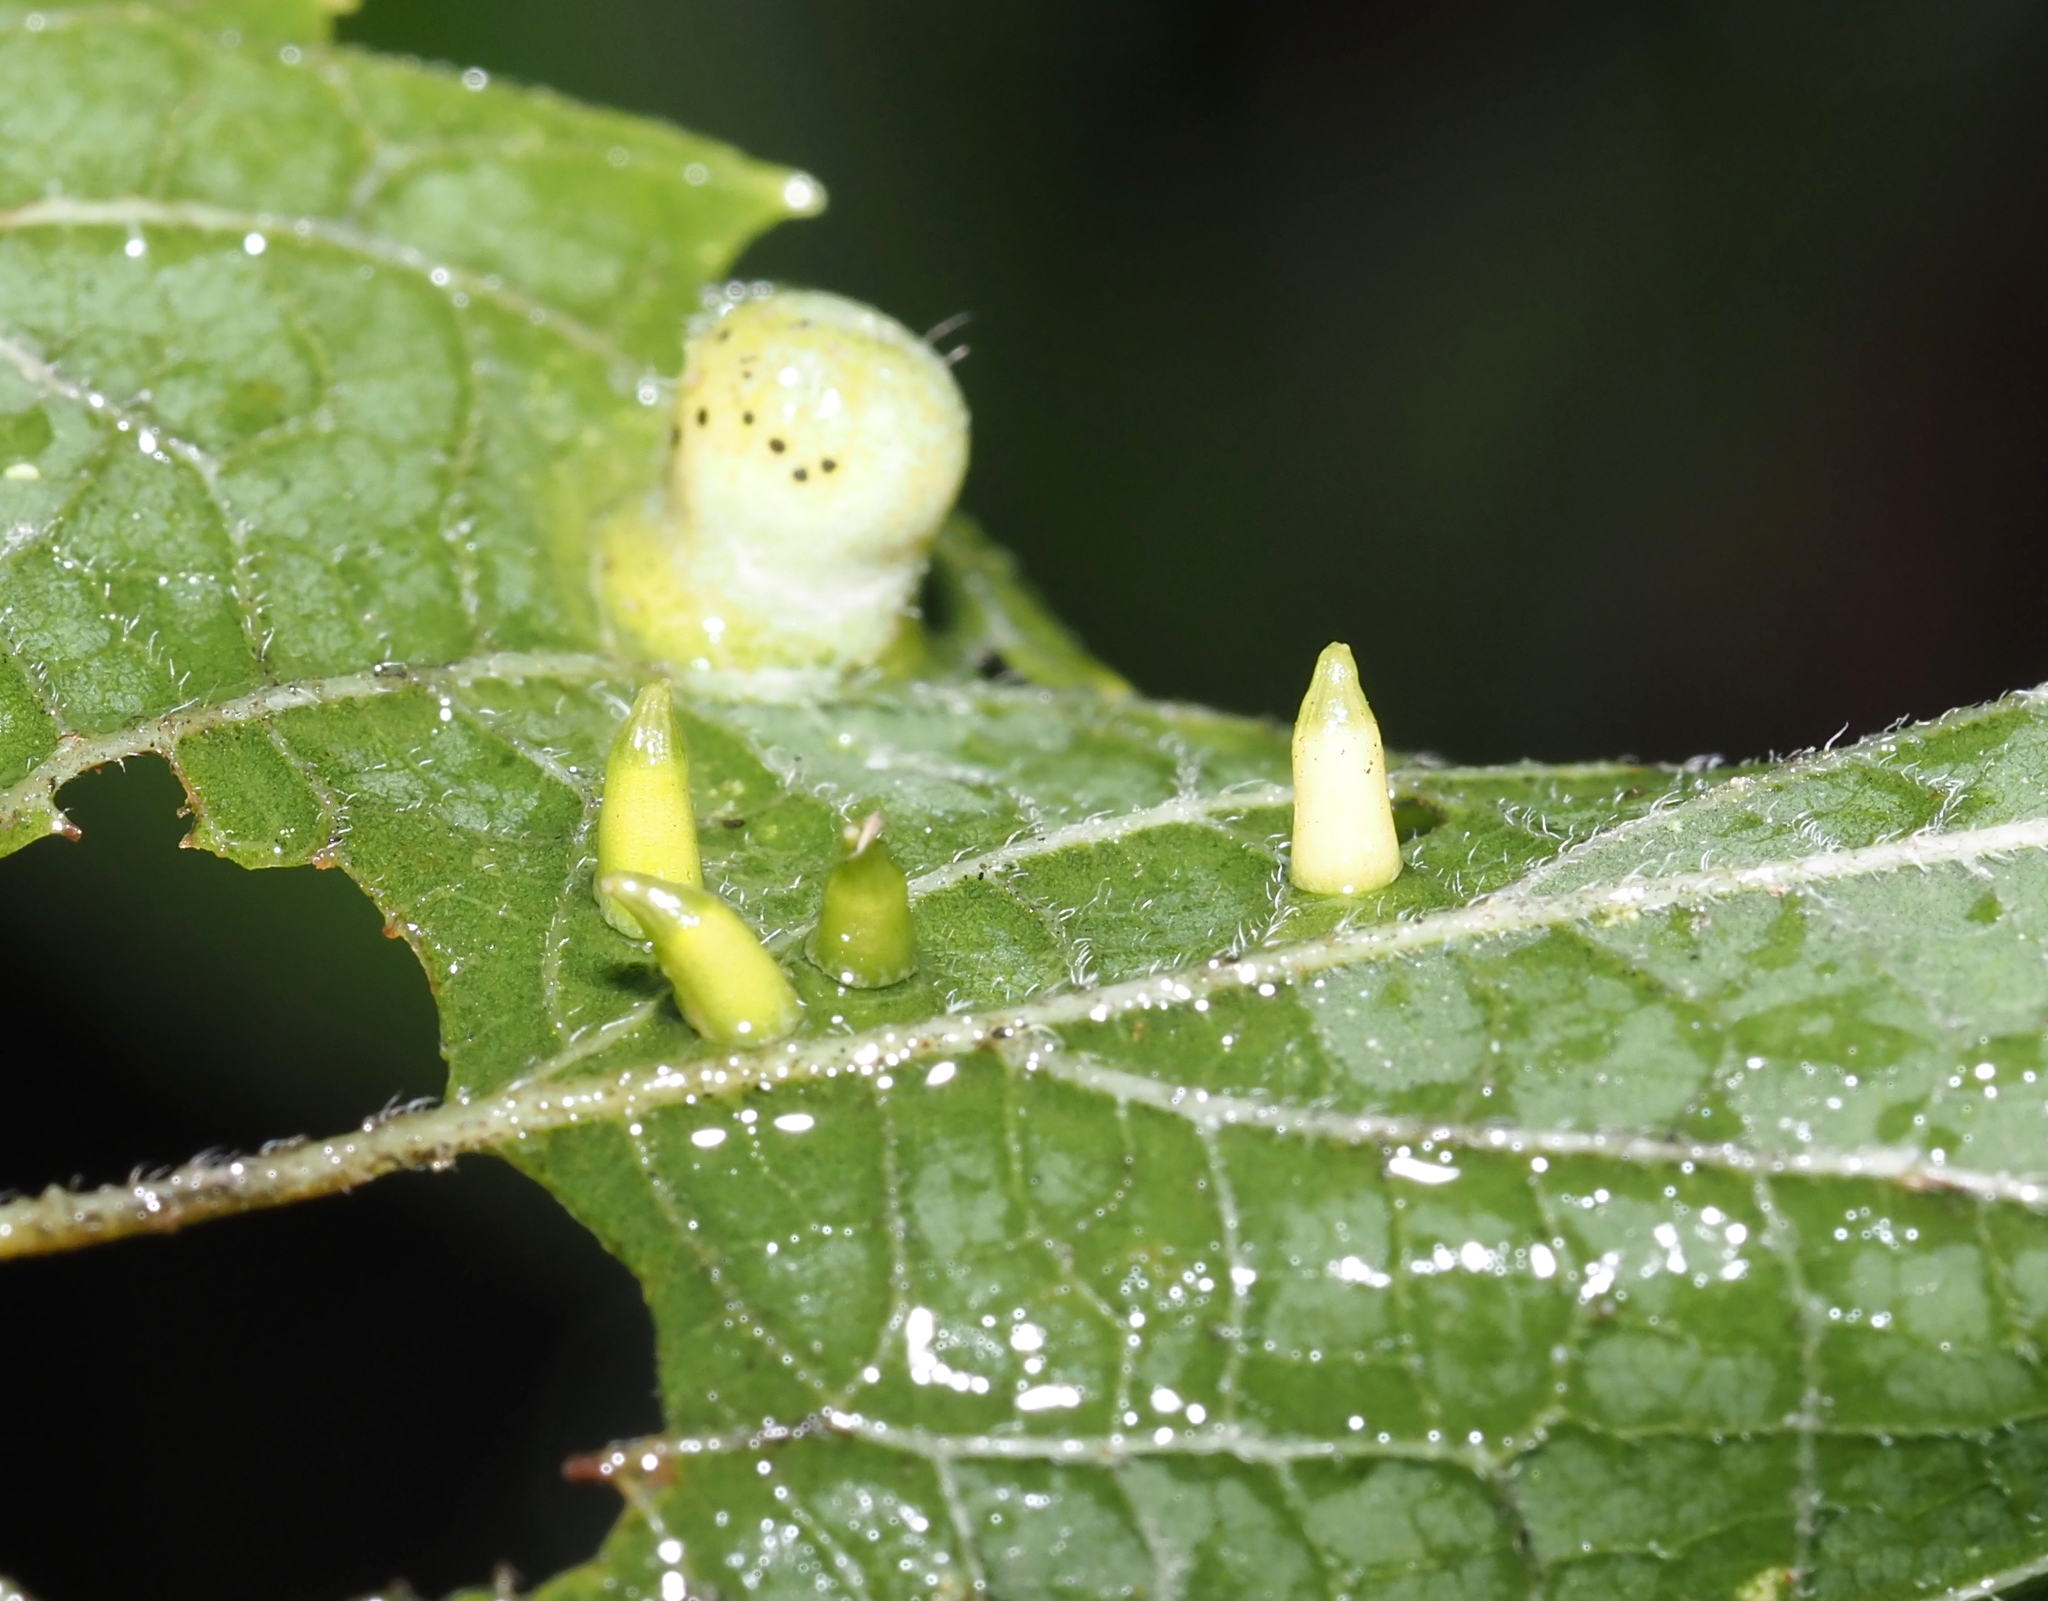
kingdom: Animalia
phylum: Arthropoda
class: Insecta
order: Diptera
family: Cecidomyiidae
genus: Celticecis
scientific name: Celticecis aciculata
